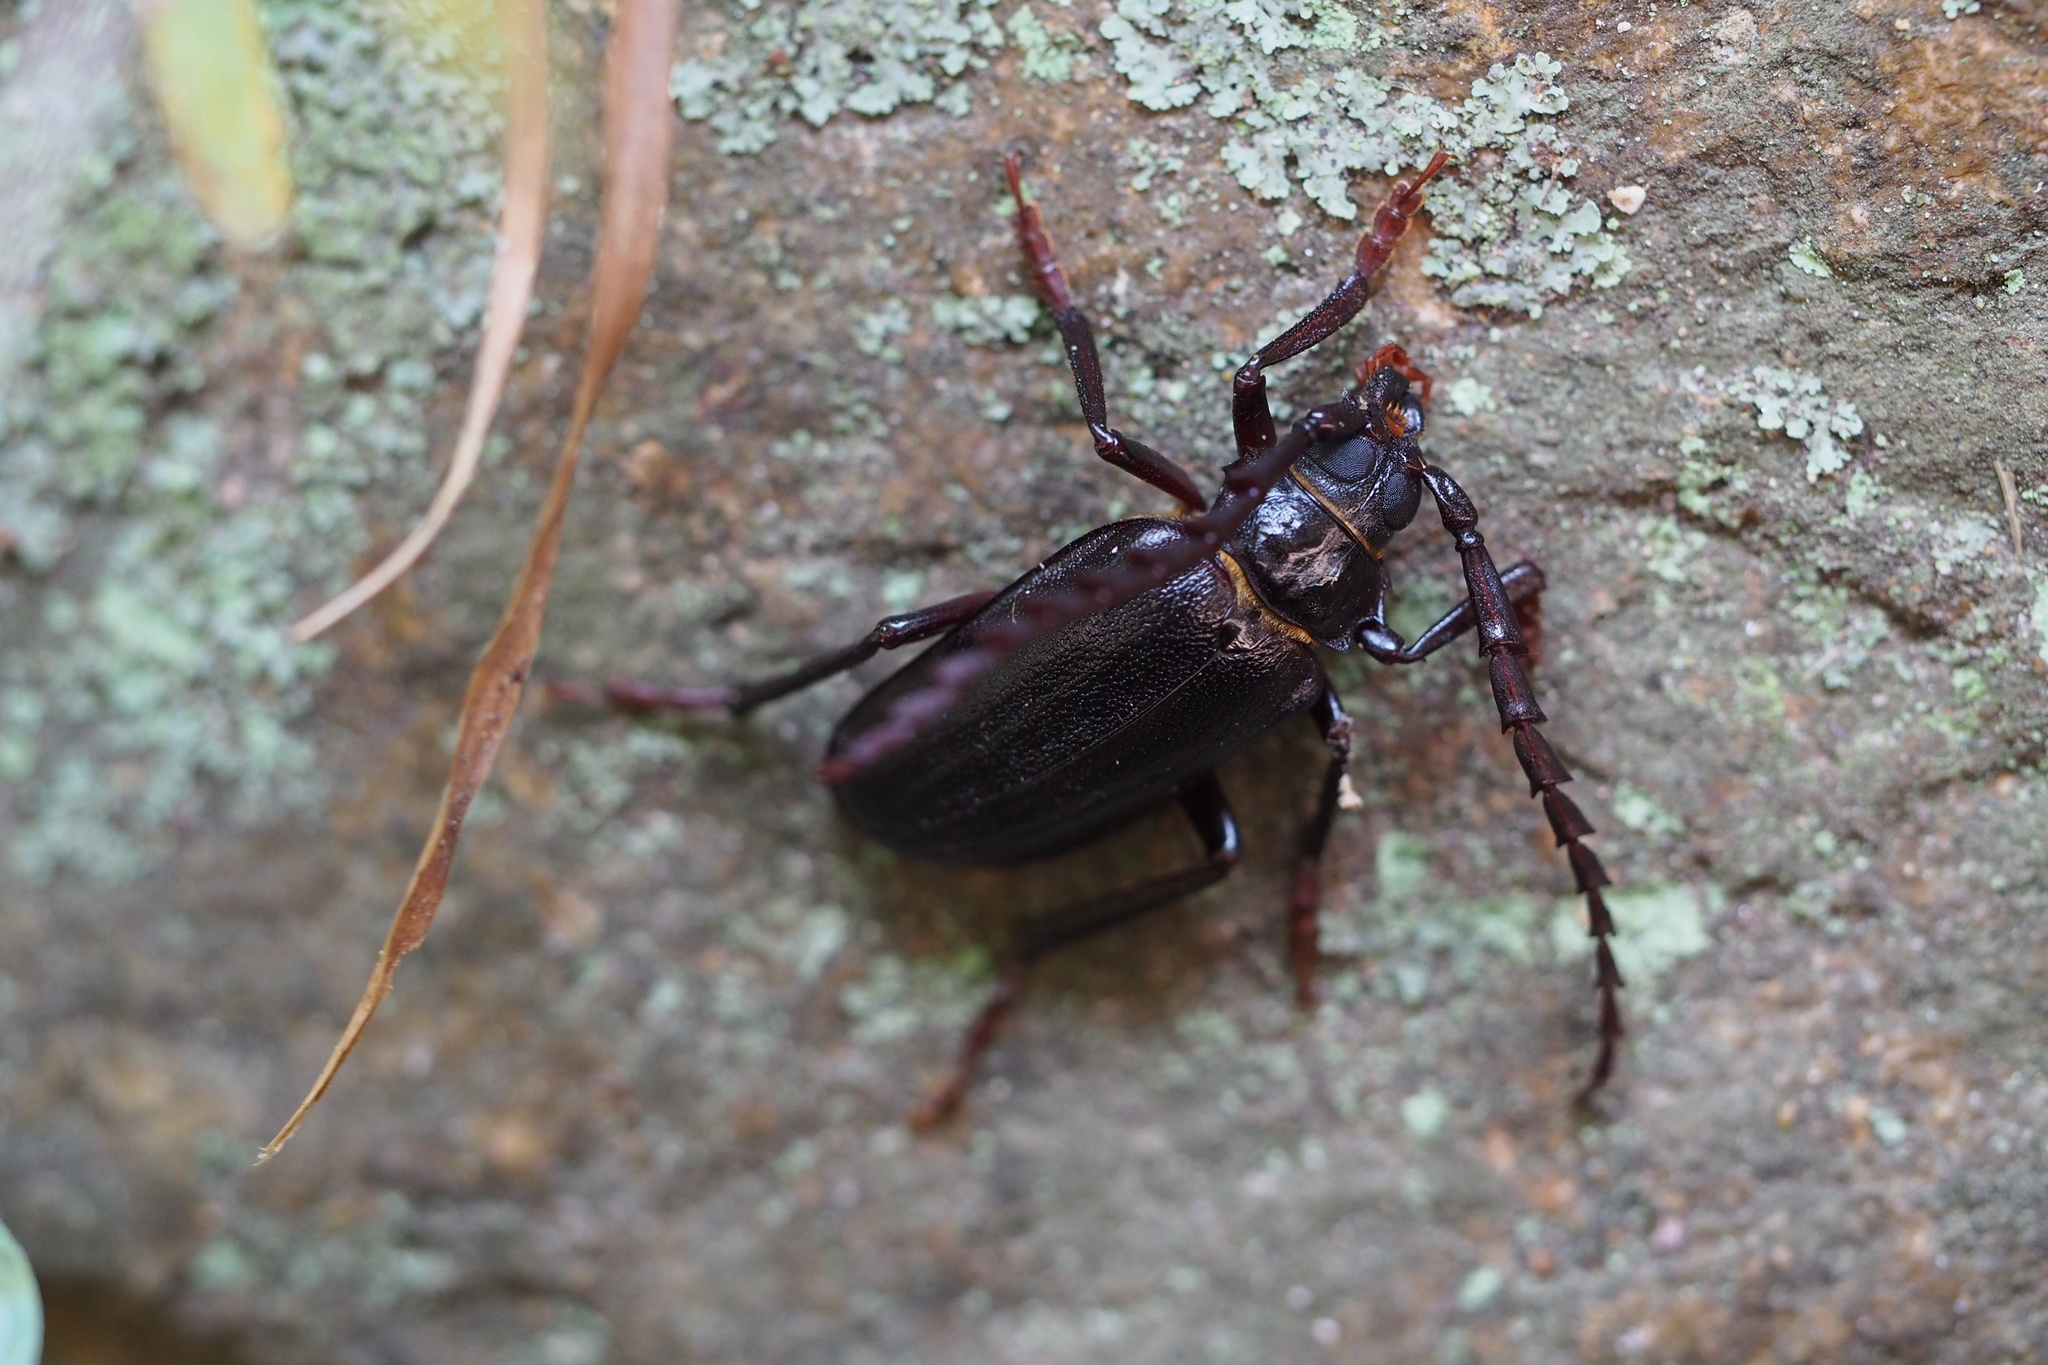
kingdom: Animalia
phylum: Arthropoda
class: Insecta
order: Coleoptera
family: Cerambycidae
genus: Prionus
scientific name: Prionus insularis
